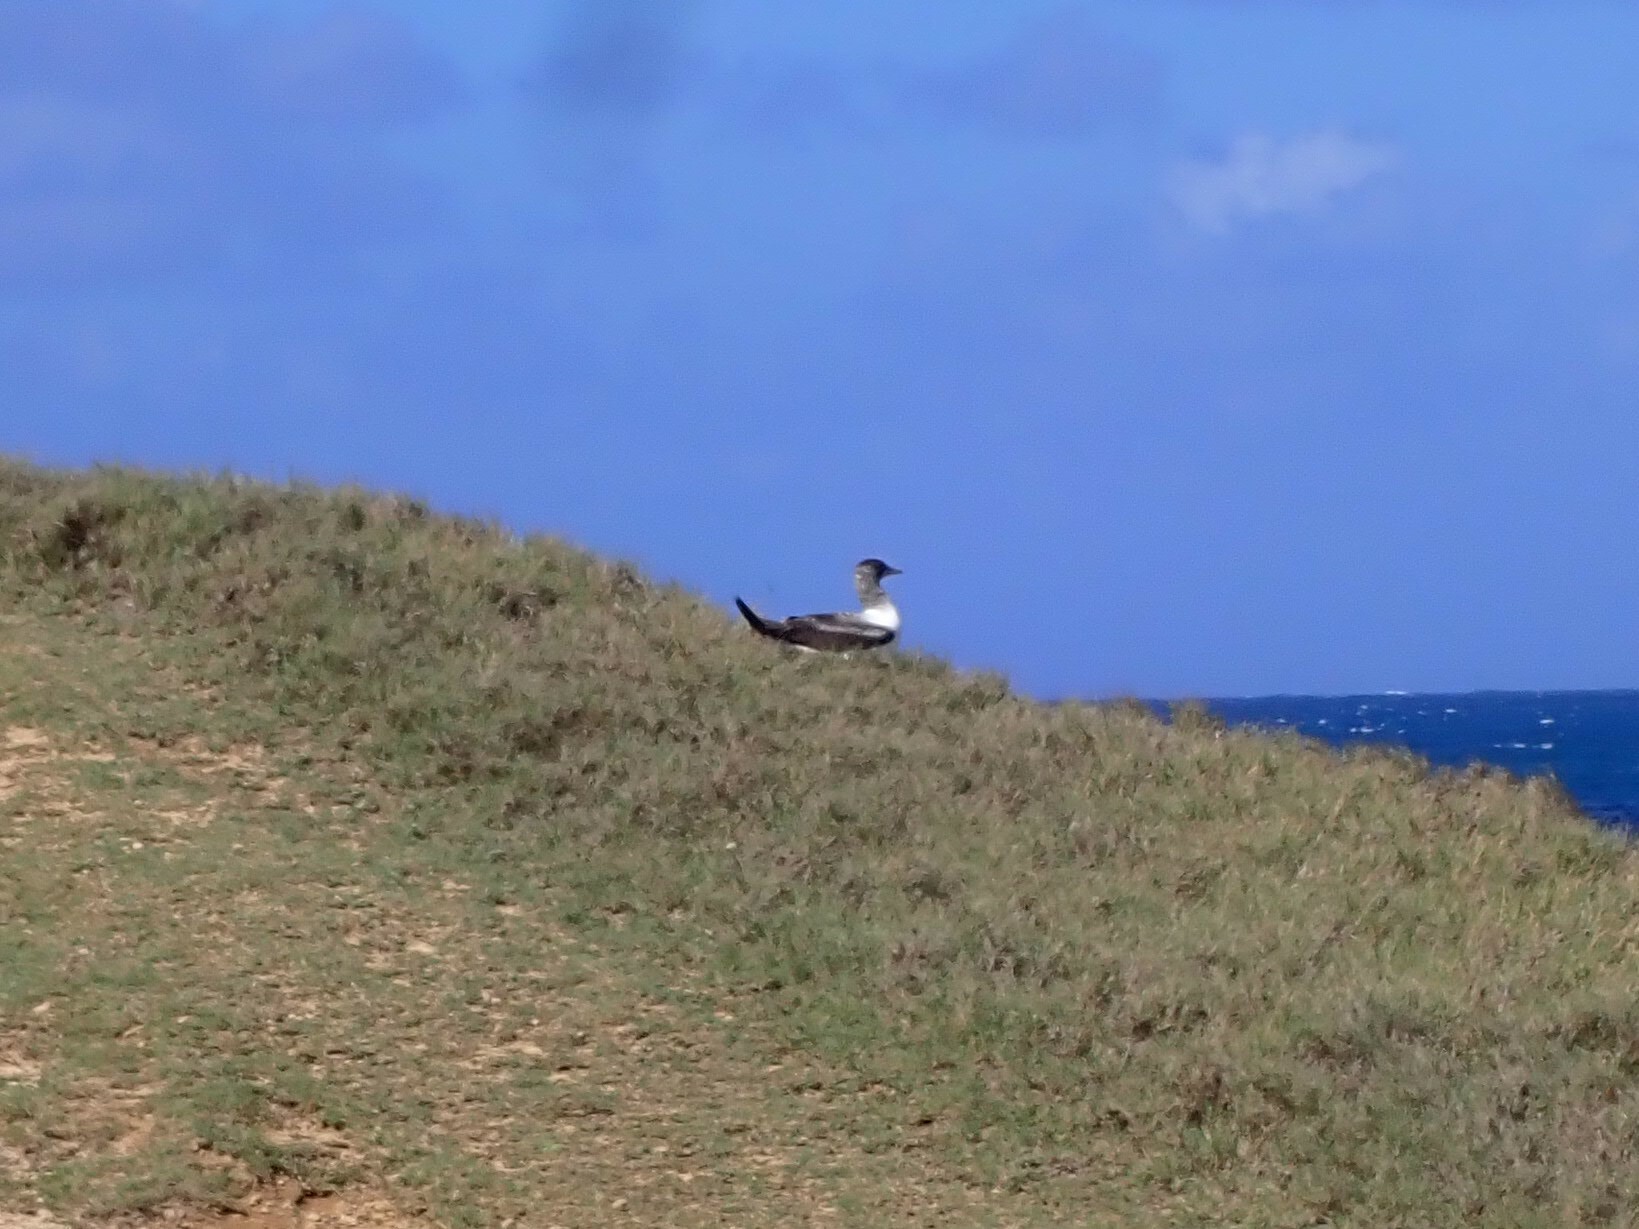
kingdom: Animalia
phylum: Chordata
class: Aves
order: Suliformes
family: Sulidae
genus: Sula
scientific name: Sula dactylatra
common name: Masked booby
